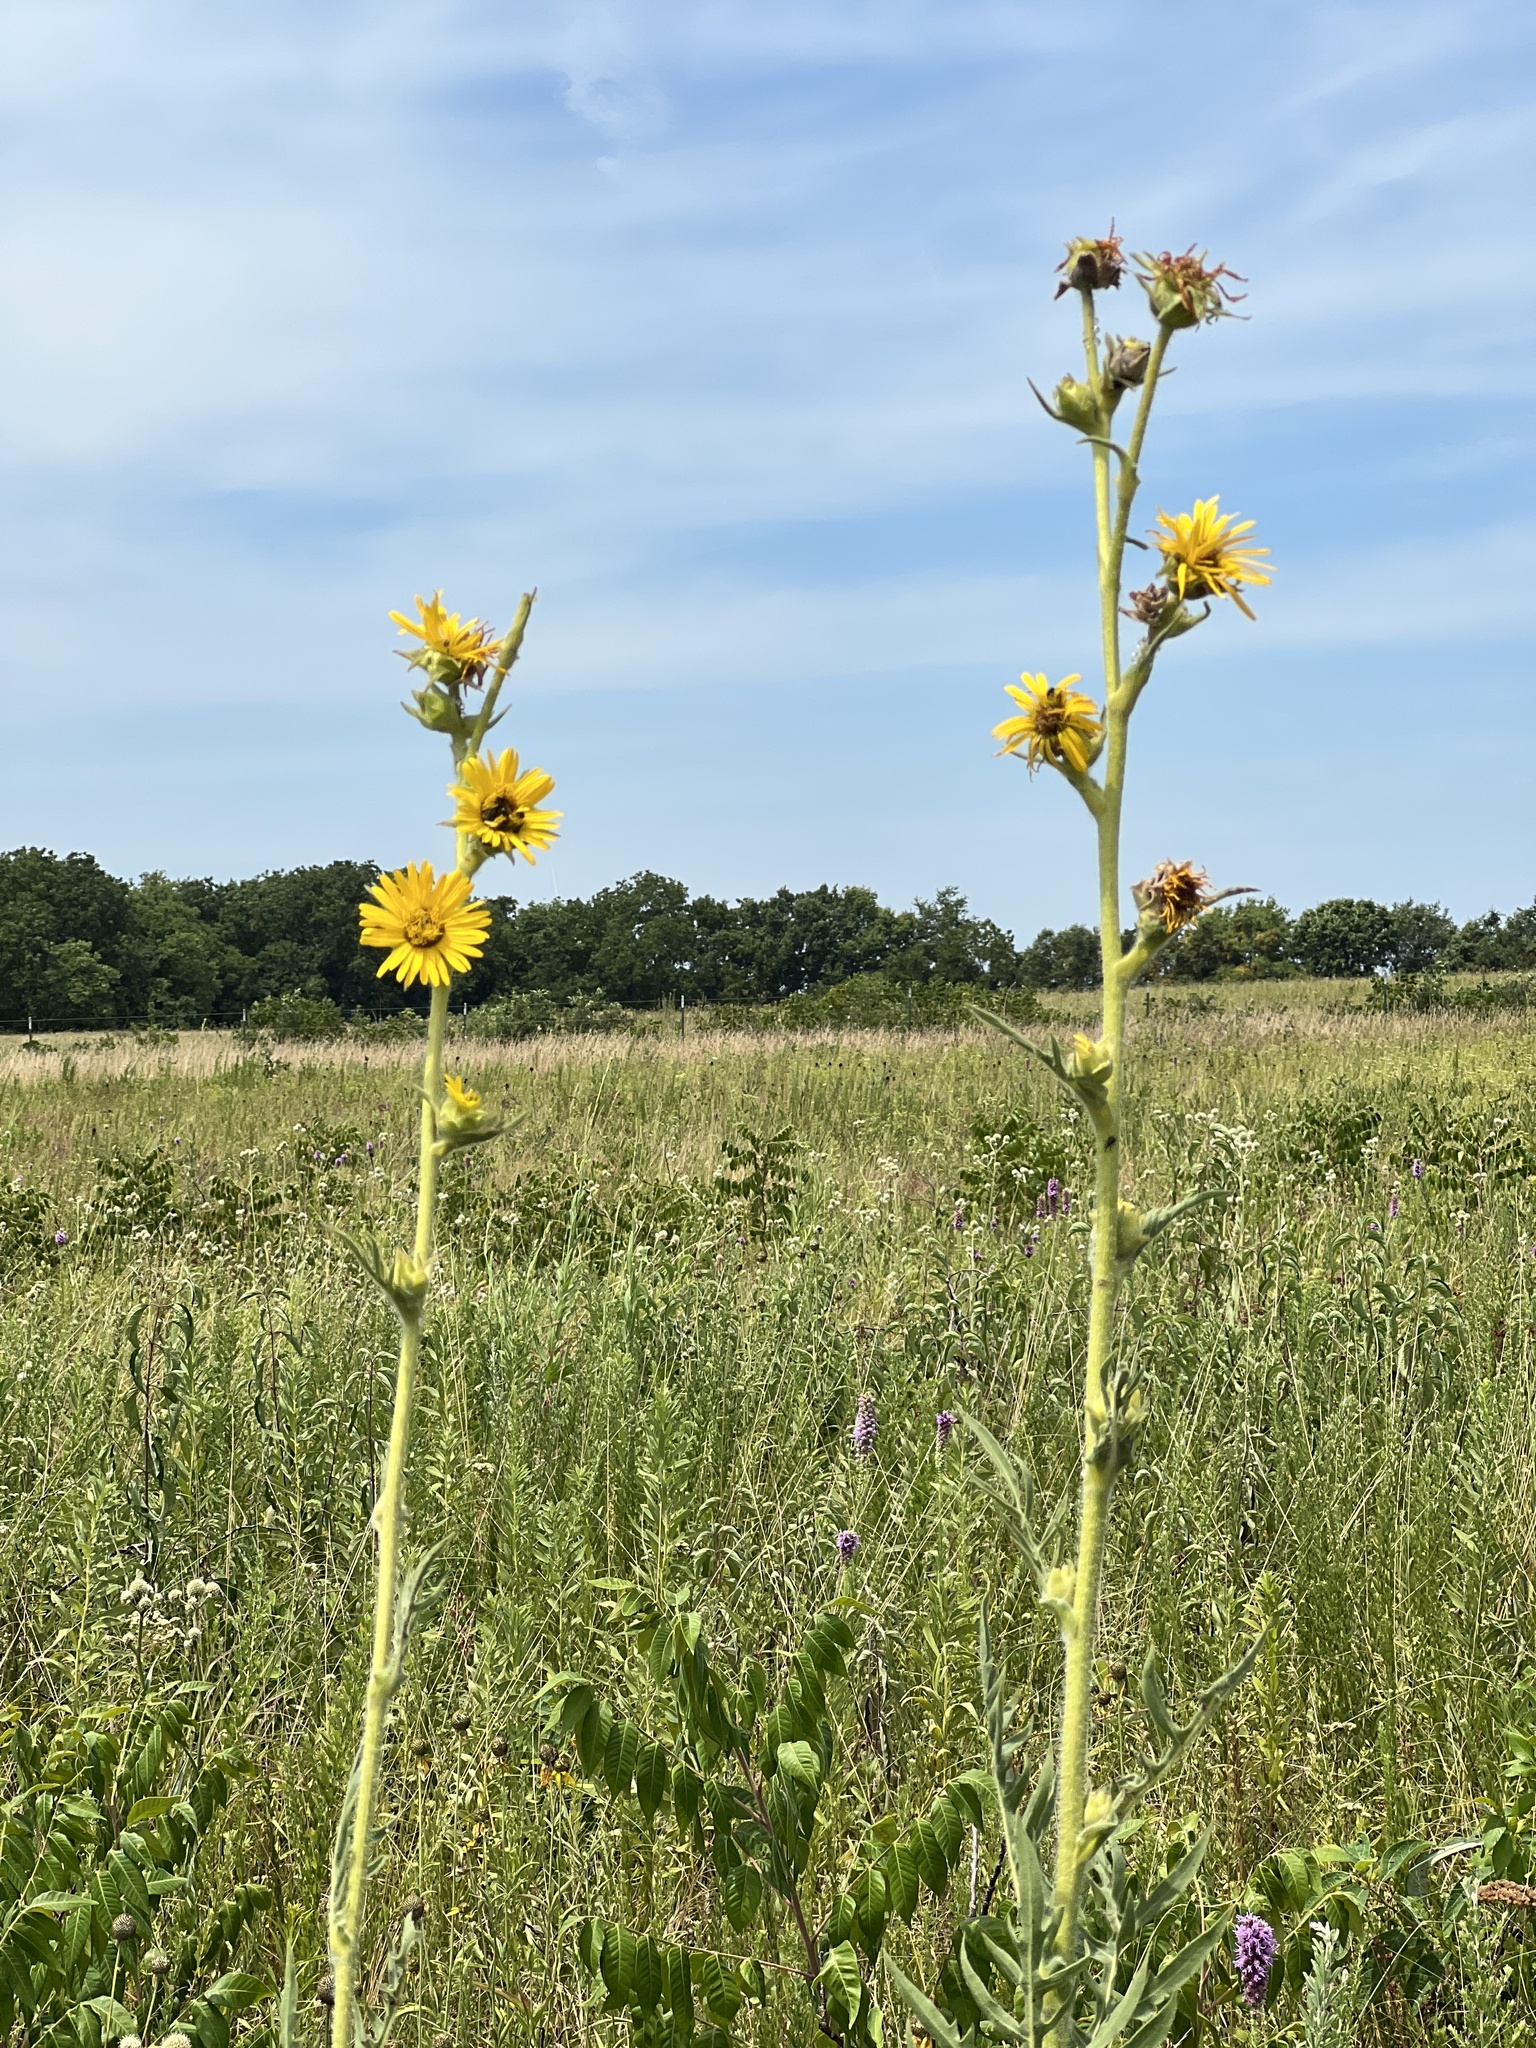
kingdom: Plantae
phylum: Tracheophyta
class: Magnoliopsida
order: Asterales
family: Asteraceae
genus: Silphium
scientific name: Silphium laciniatum
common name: Polarplant
